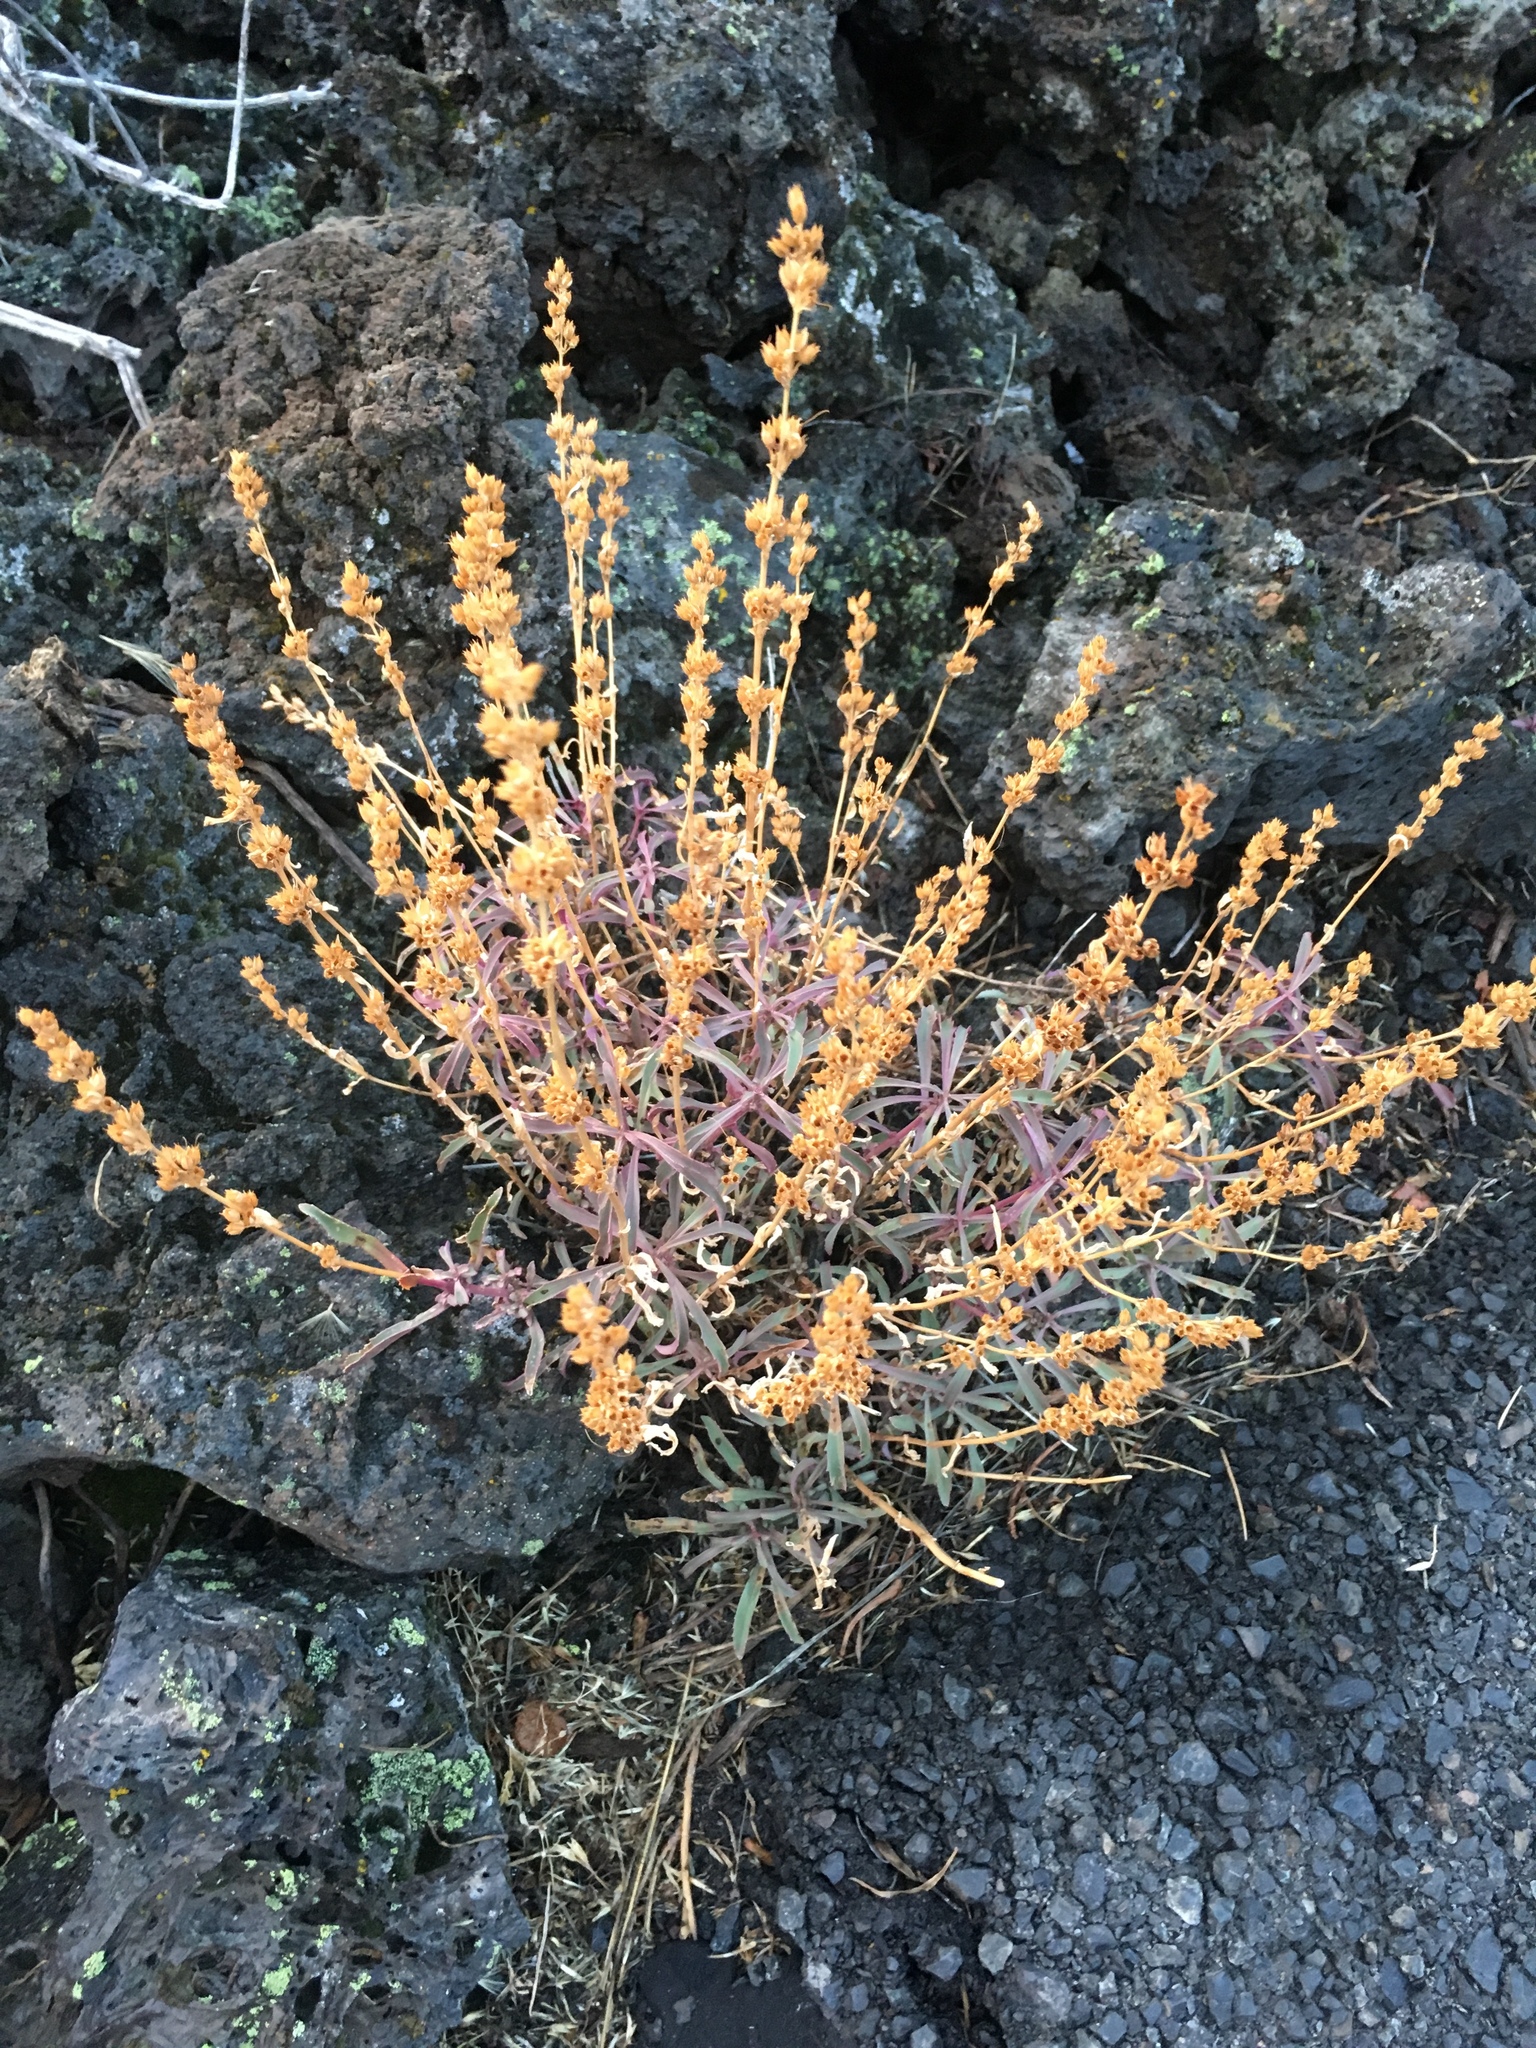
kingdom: Plantae
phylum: Tracheophyta
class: Magnoliopsida
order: Lamiales
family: Plantaginaceae
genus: Penstemon
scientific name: Penstemon deustus
